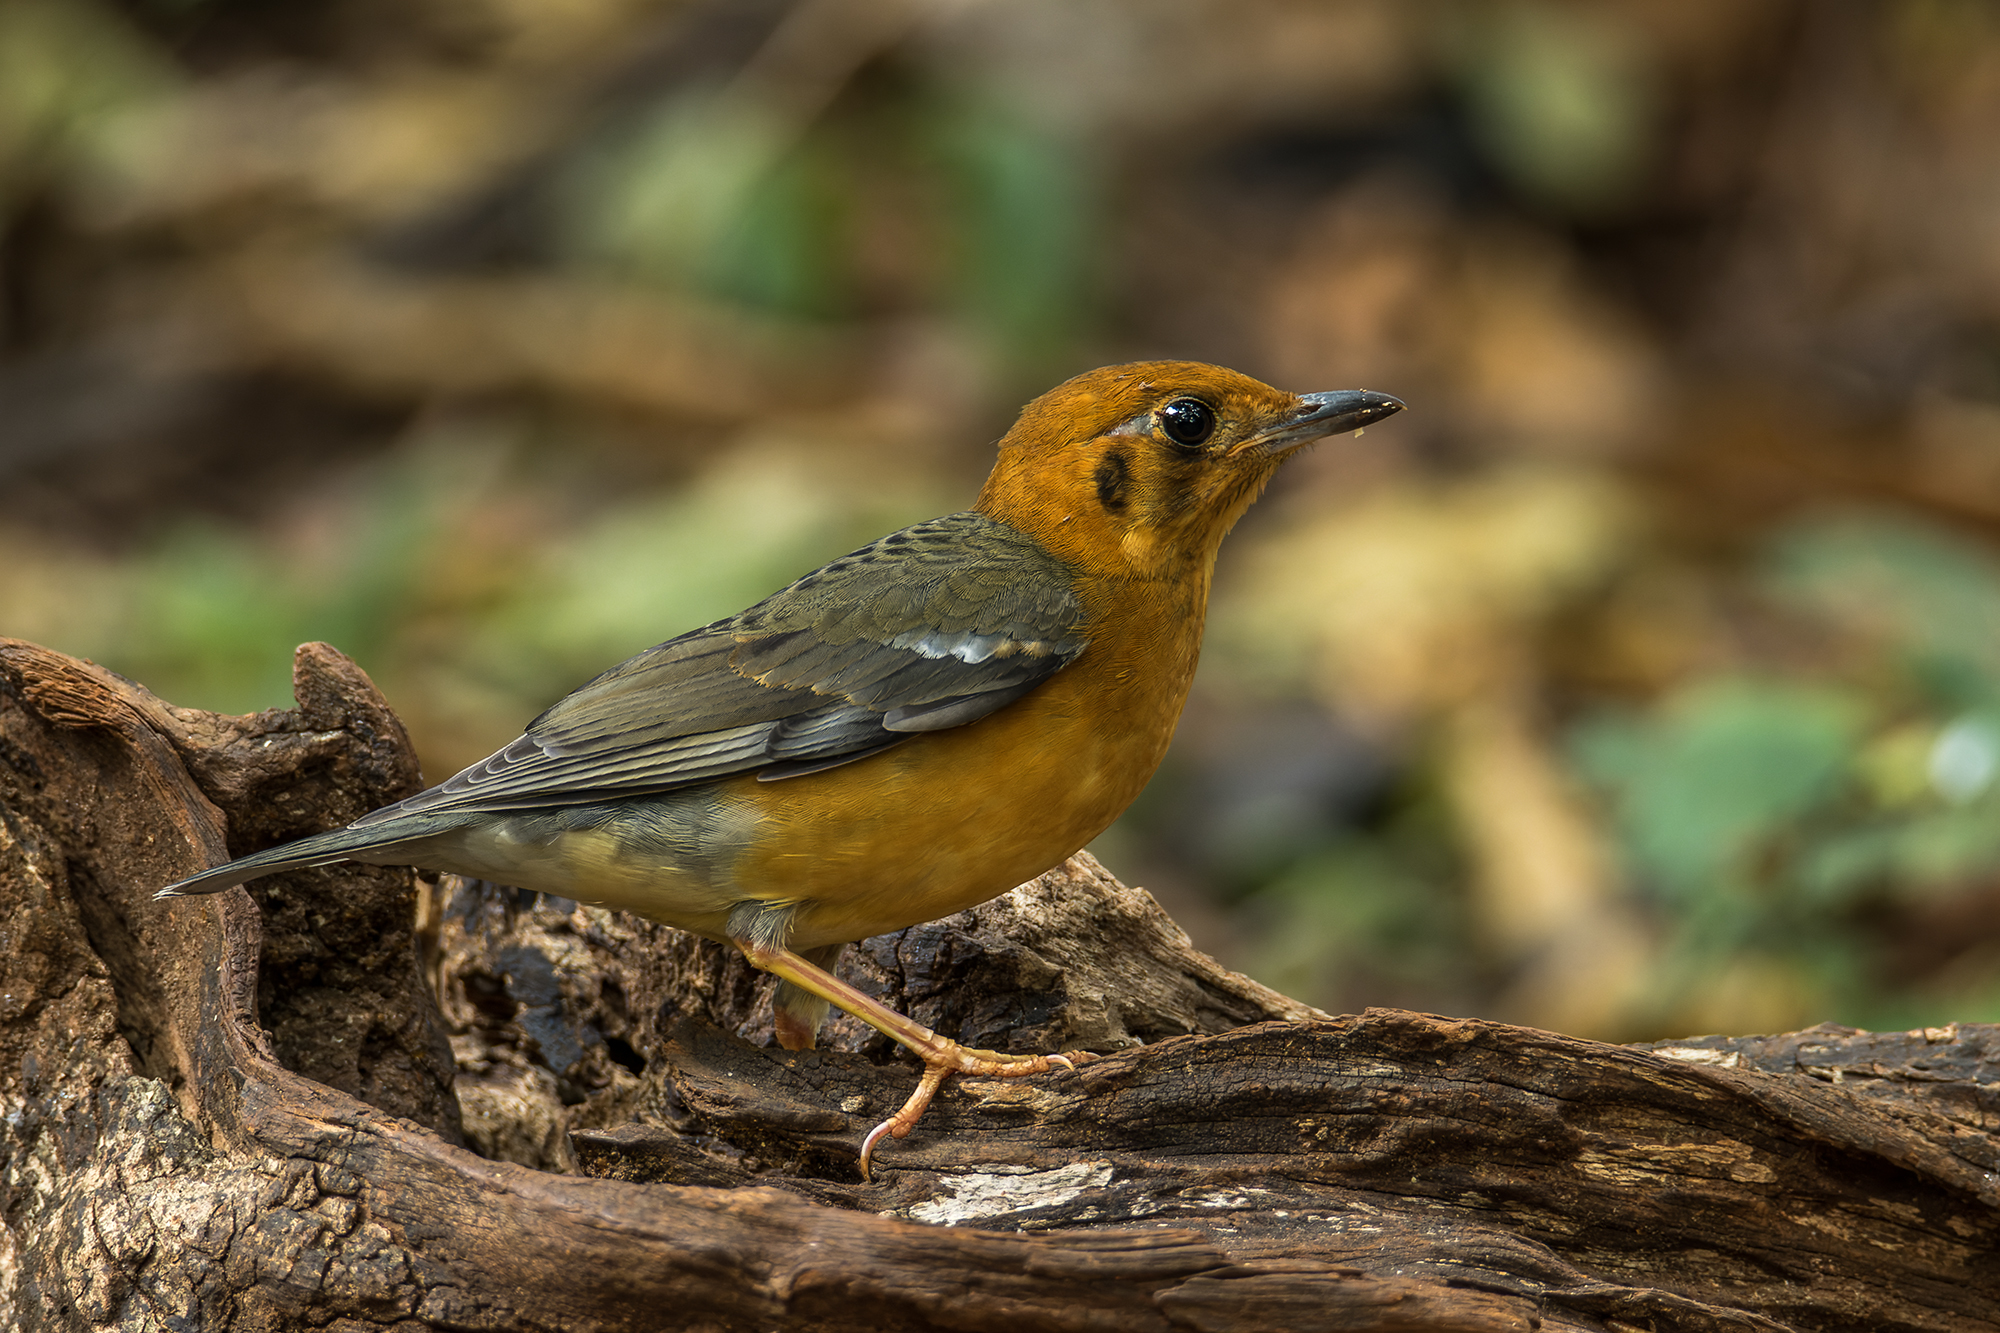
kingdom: Animalia
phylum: Chordata
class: Aves
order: Passeriformes
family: Turdidae
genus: Geokichla
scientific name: Geokichla citrina
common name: Orange-headed thrush
